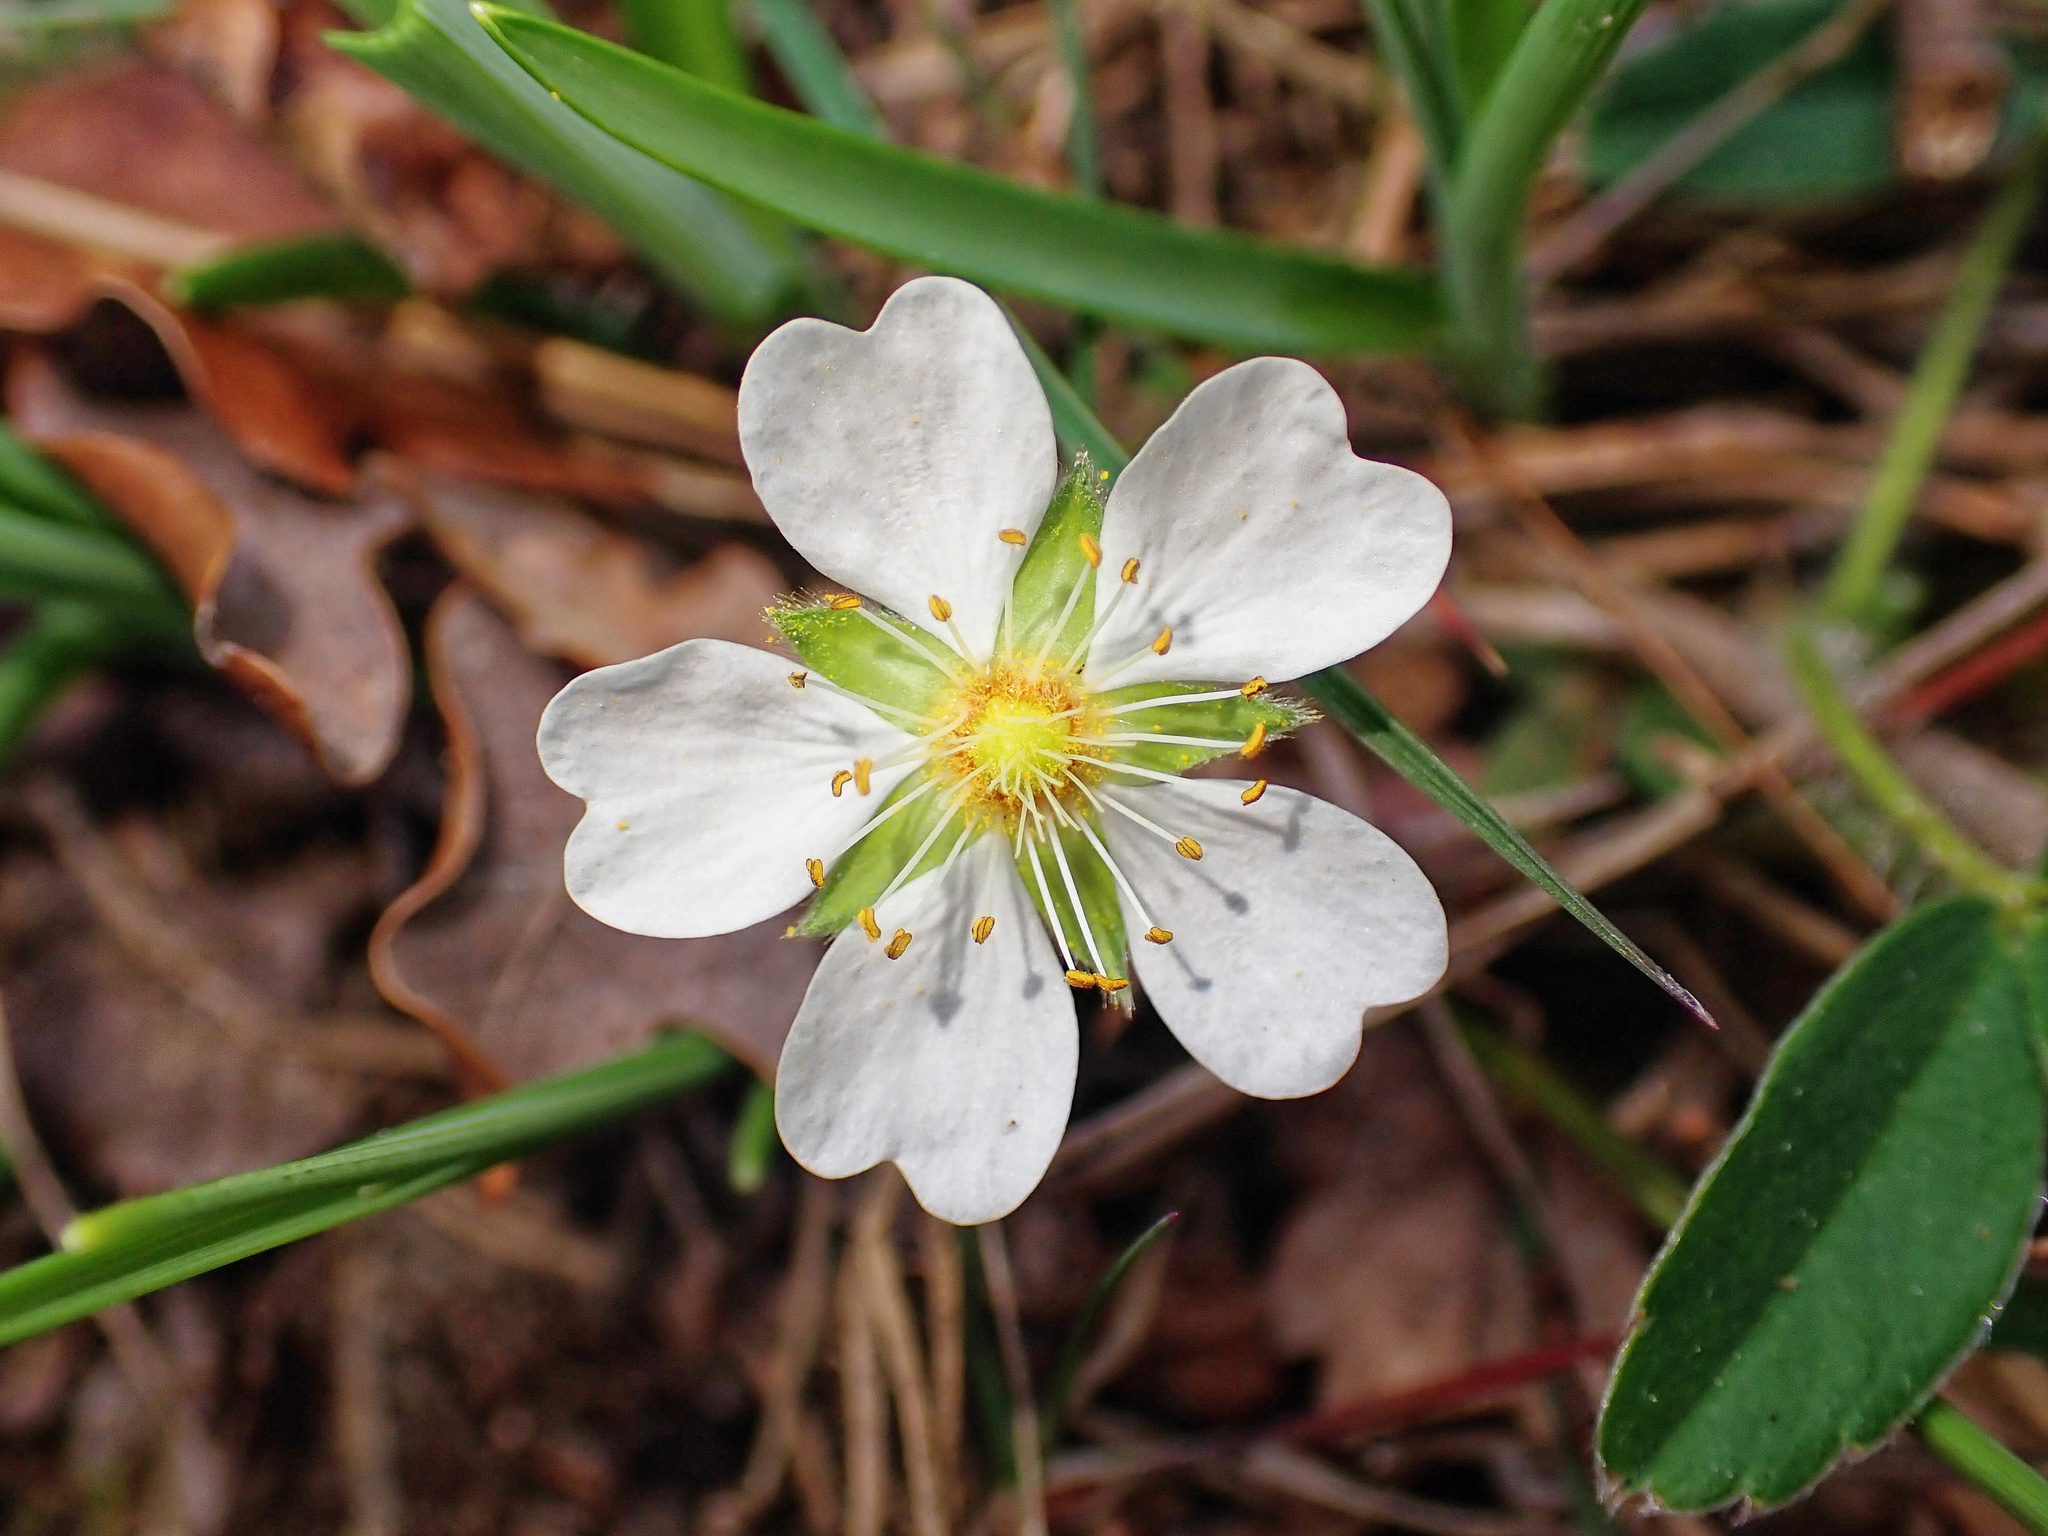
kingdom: Plantae
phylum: Tracheophyta
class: Magnoliopsida
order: Rosales
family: Rosaceae
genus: Potentilla
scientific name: Potentilla montana
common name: Mountain cinquefoil
